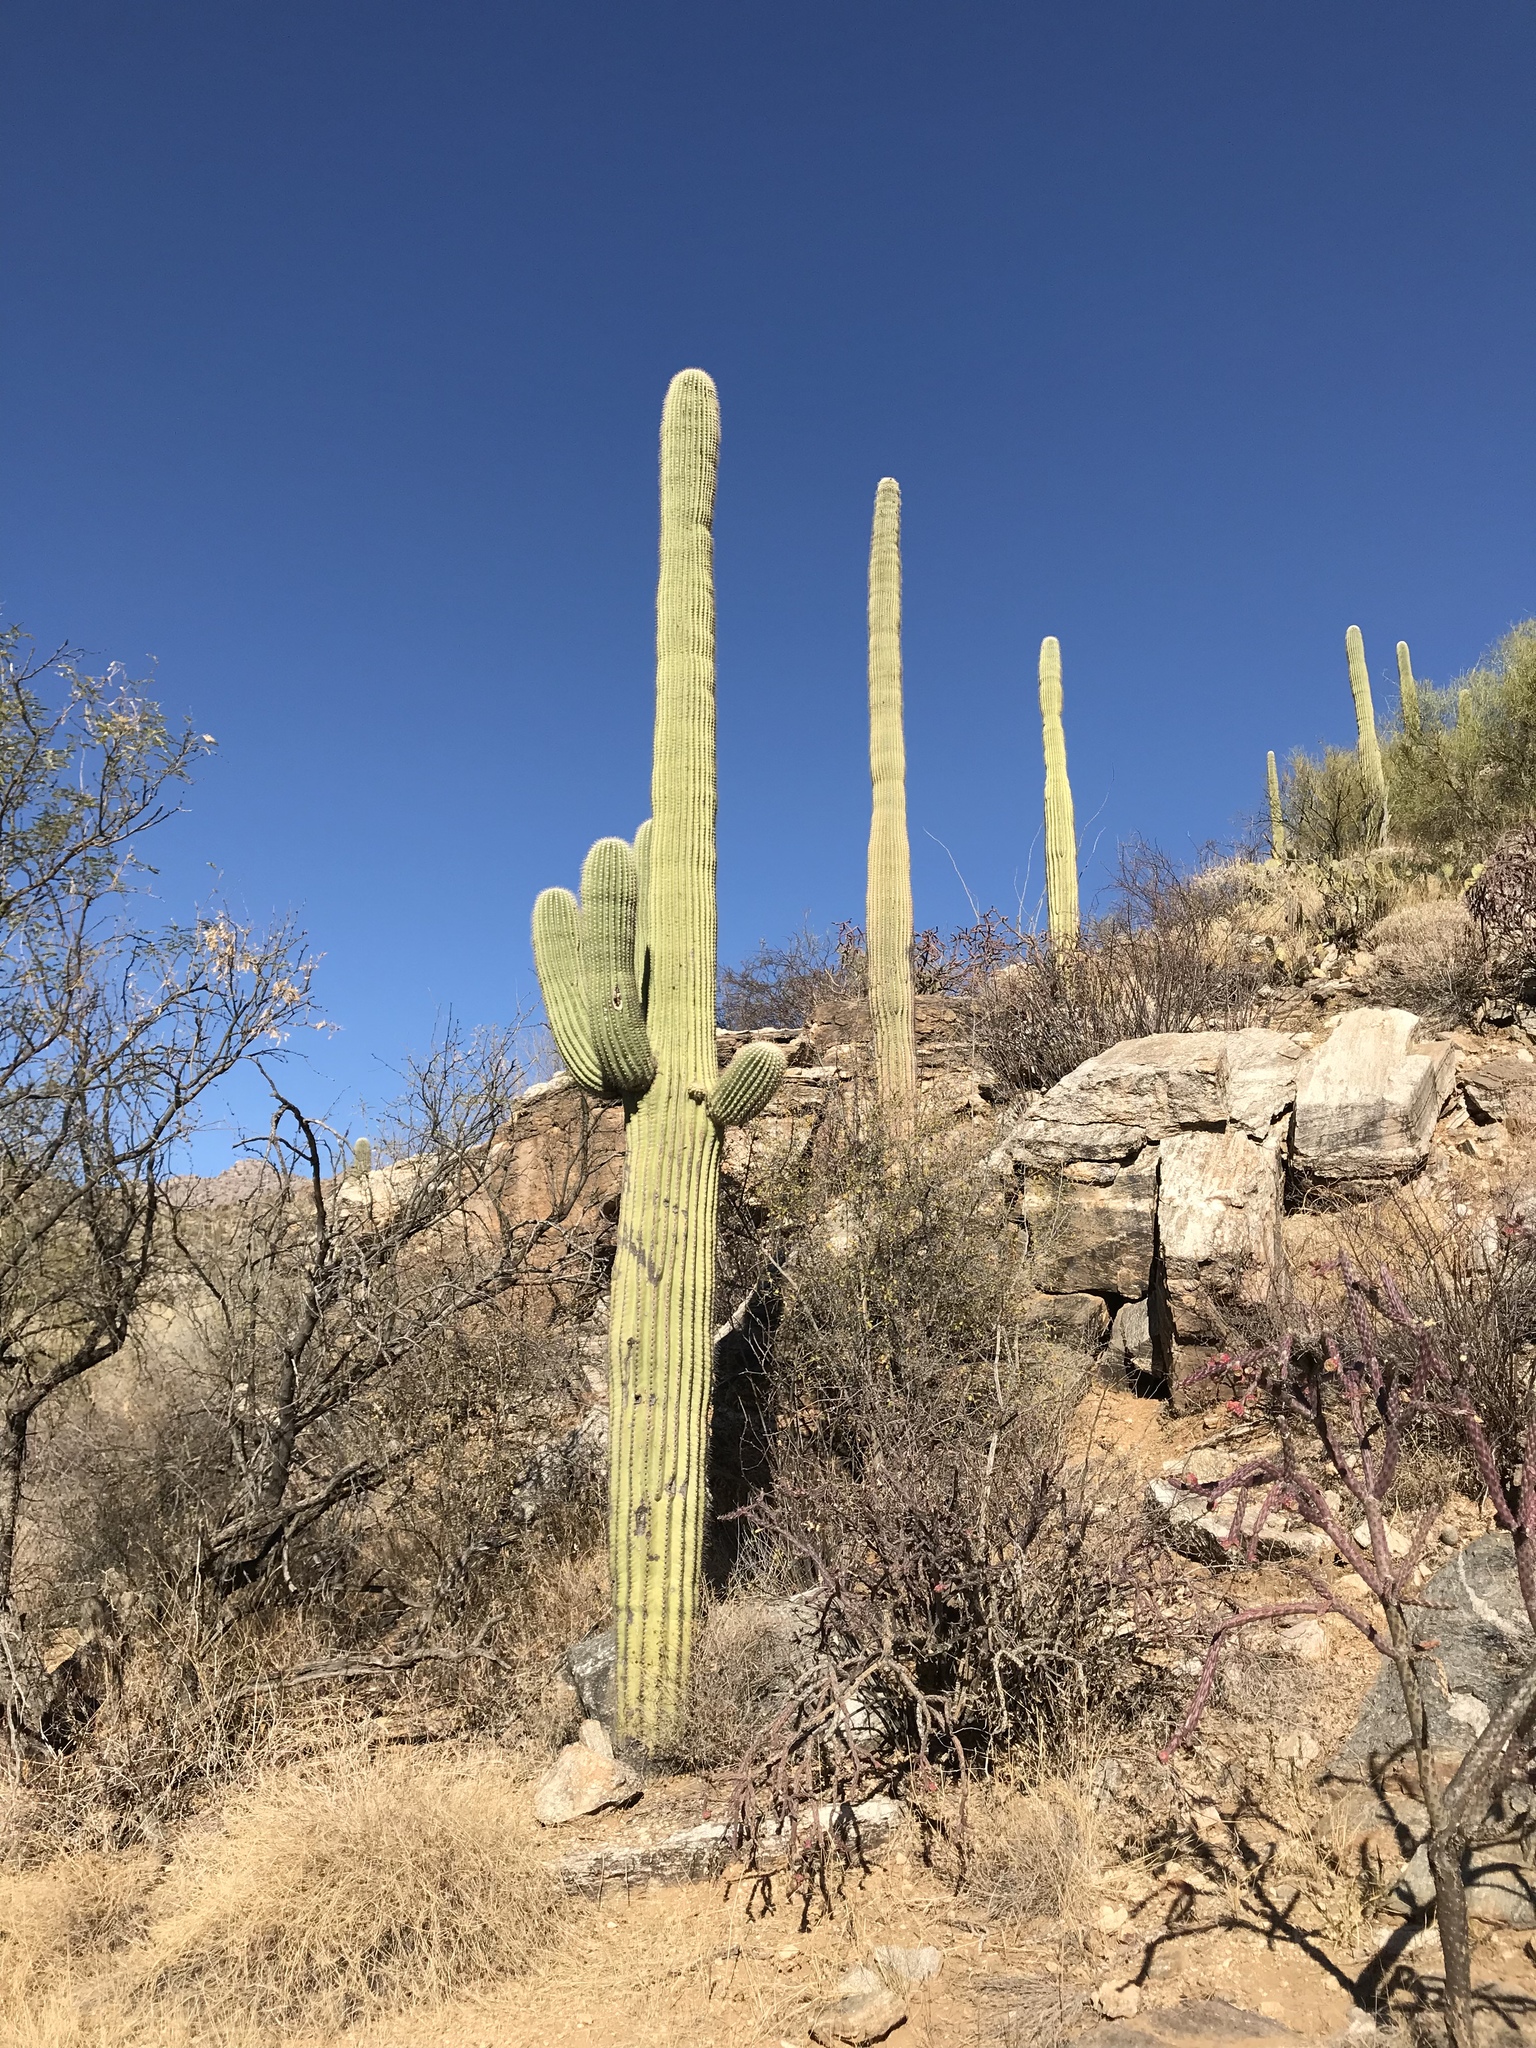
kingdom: Plantae
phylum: Tracheophyta
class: Magnoliopsida
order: Caryophyllales
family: Cactaceae
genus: Carnegiea
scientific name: Carnegiea gigantea
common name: Saguaro
